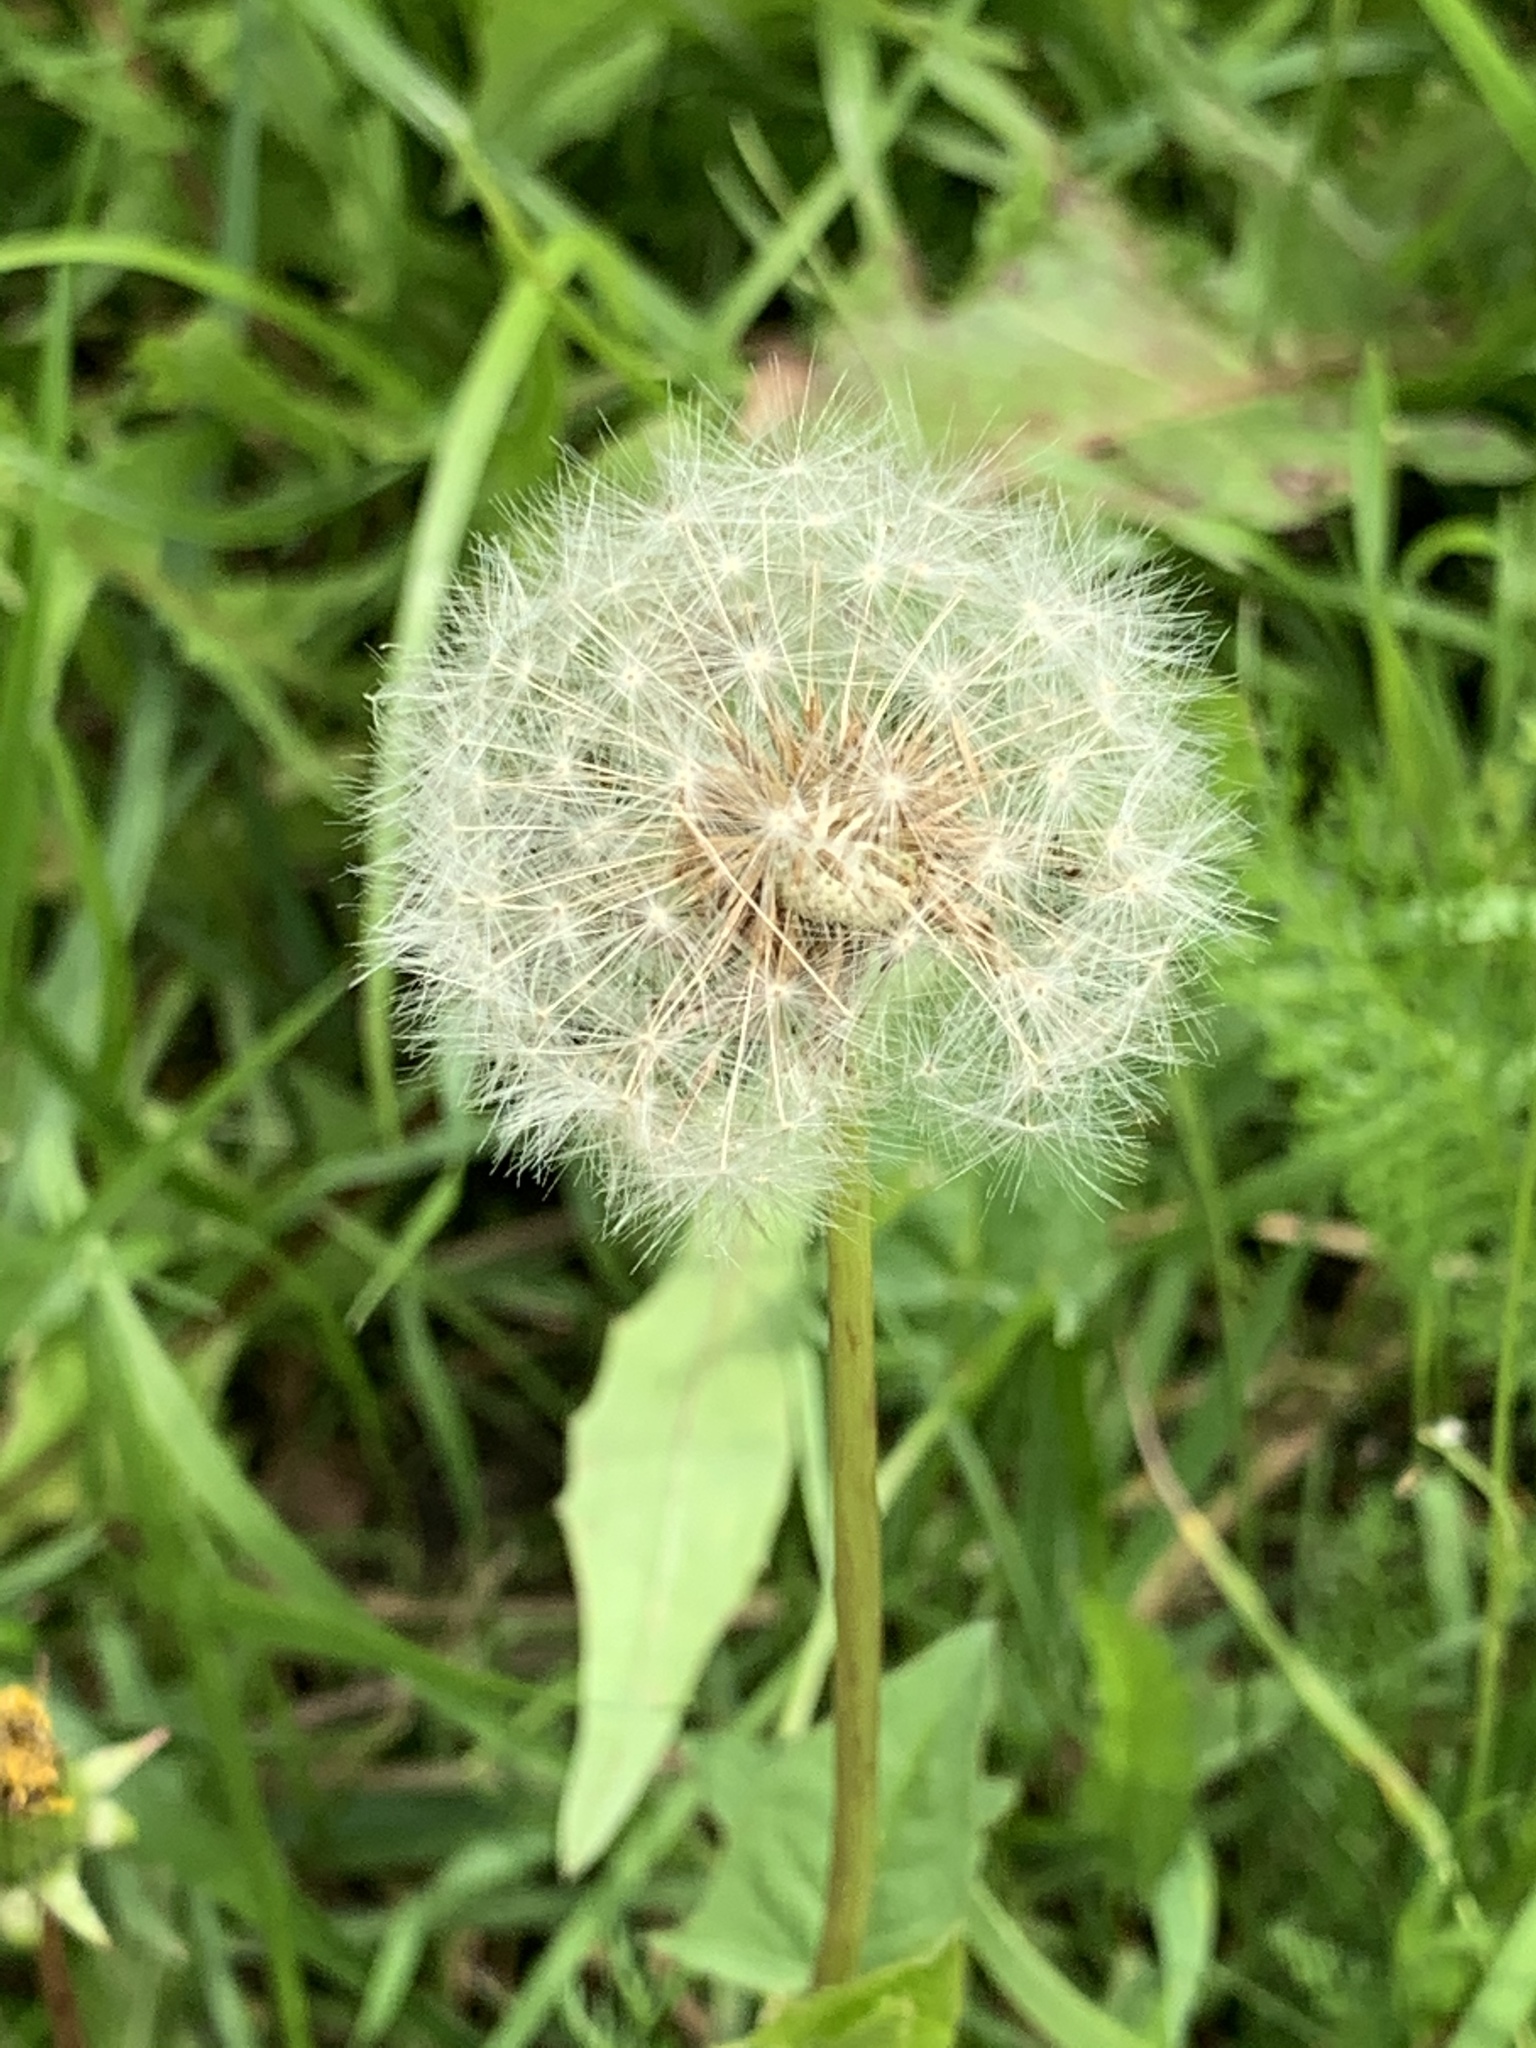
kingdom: Plantae
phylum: Tracheophyta
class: Magnoliopsida
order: Asterales
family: Asteraceae
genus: Taraxacum
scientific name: Taraxacum officinale
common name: Common dandelion
